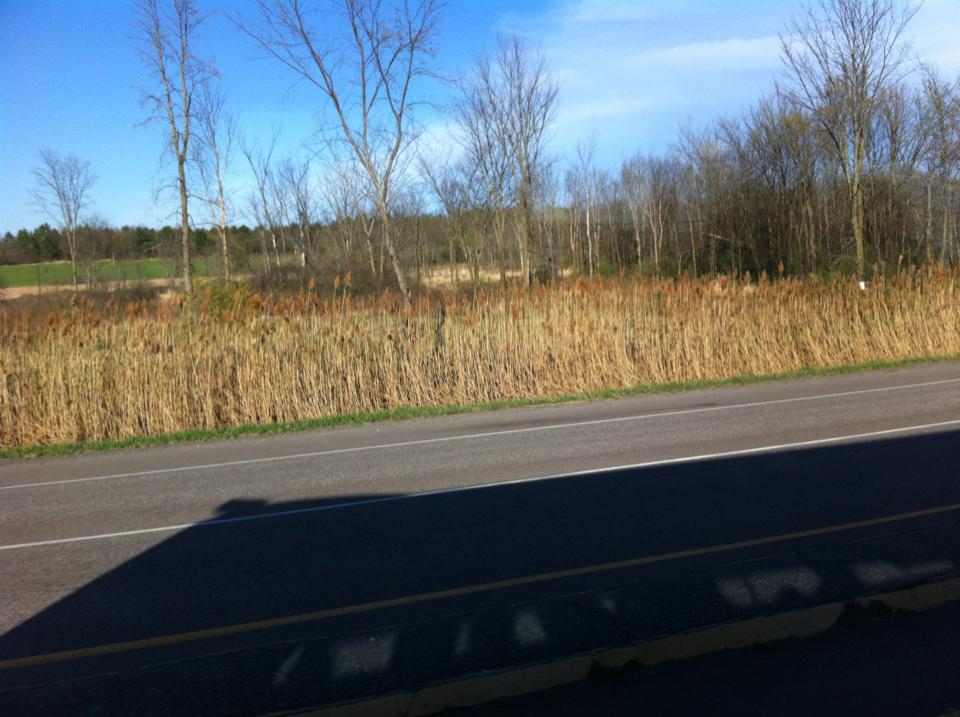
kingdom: Plantae
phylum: Tracheophyta
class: Liliopsida
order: Poales
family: Poaceae
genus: Phragmites
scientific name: Phragmites australis
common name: Common reed
